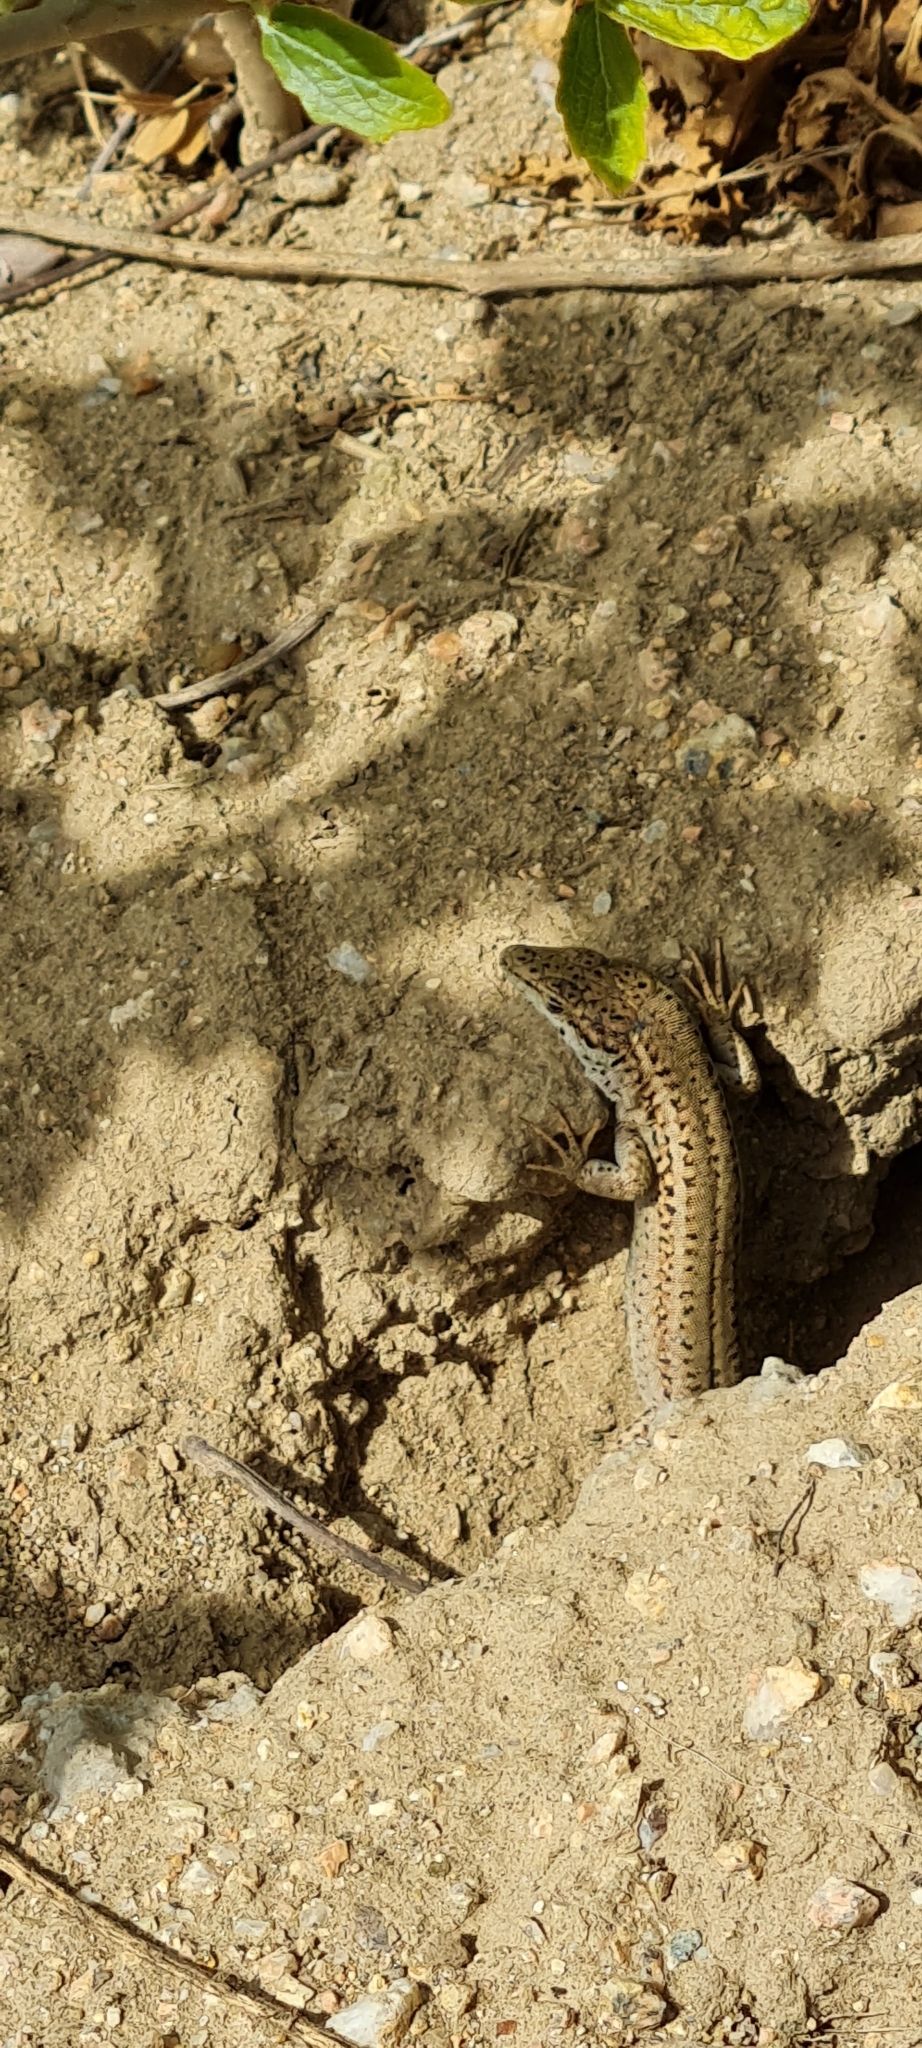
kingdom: Animalia
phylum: Chordata
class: Squamata
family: Lacertidae
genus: Podarcis
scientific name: Podarcis liolepis
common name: Catalonian wall lizard
